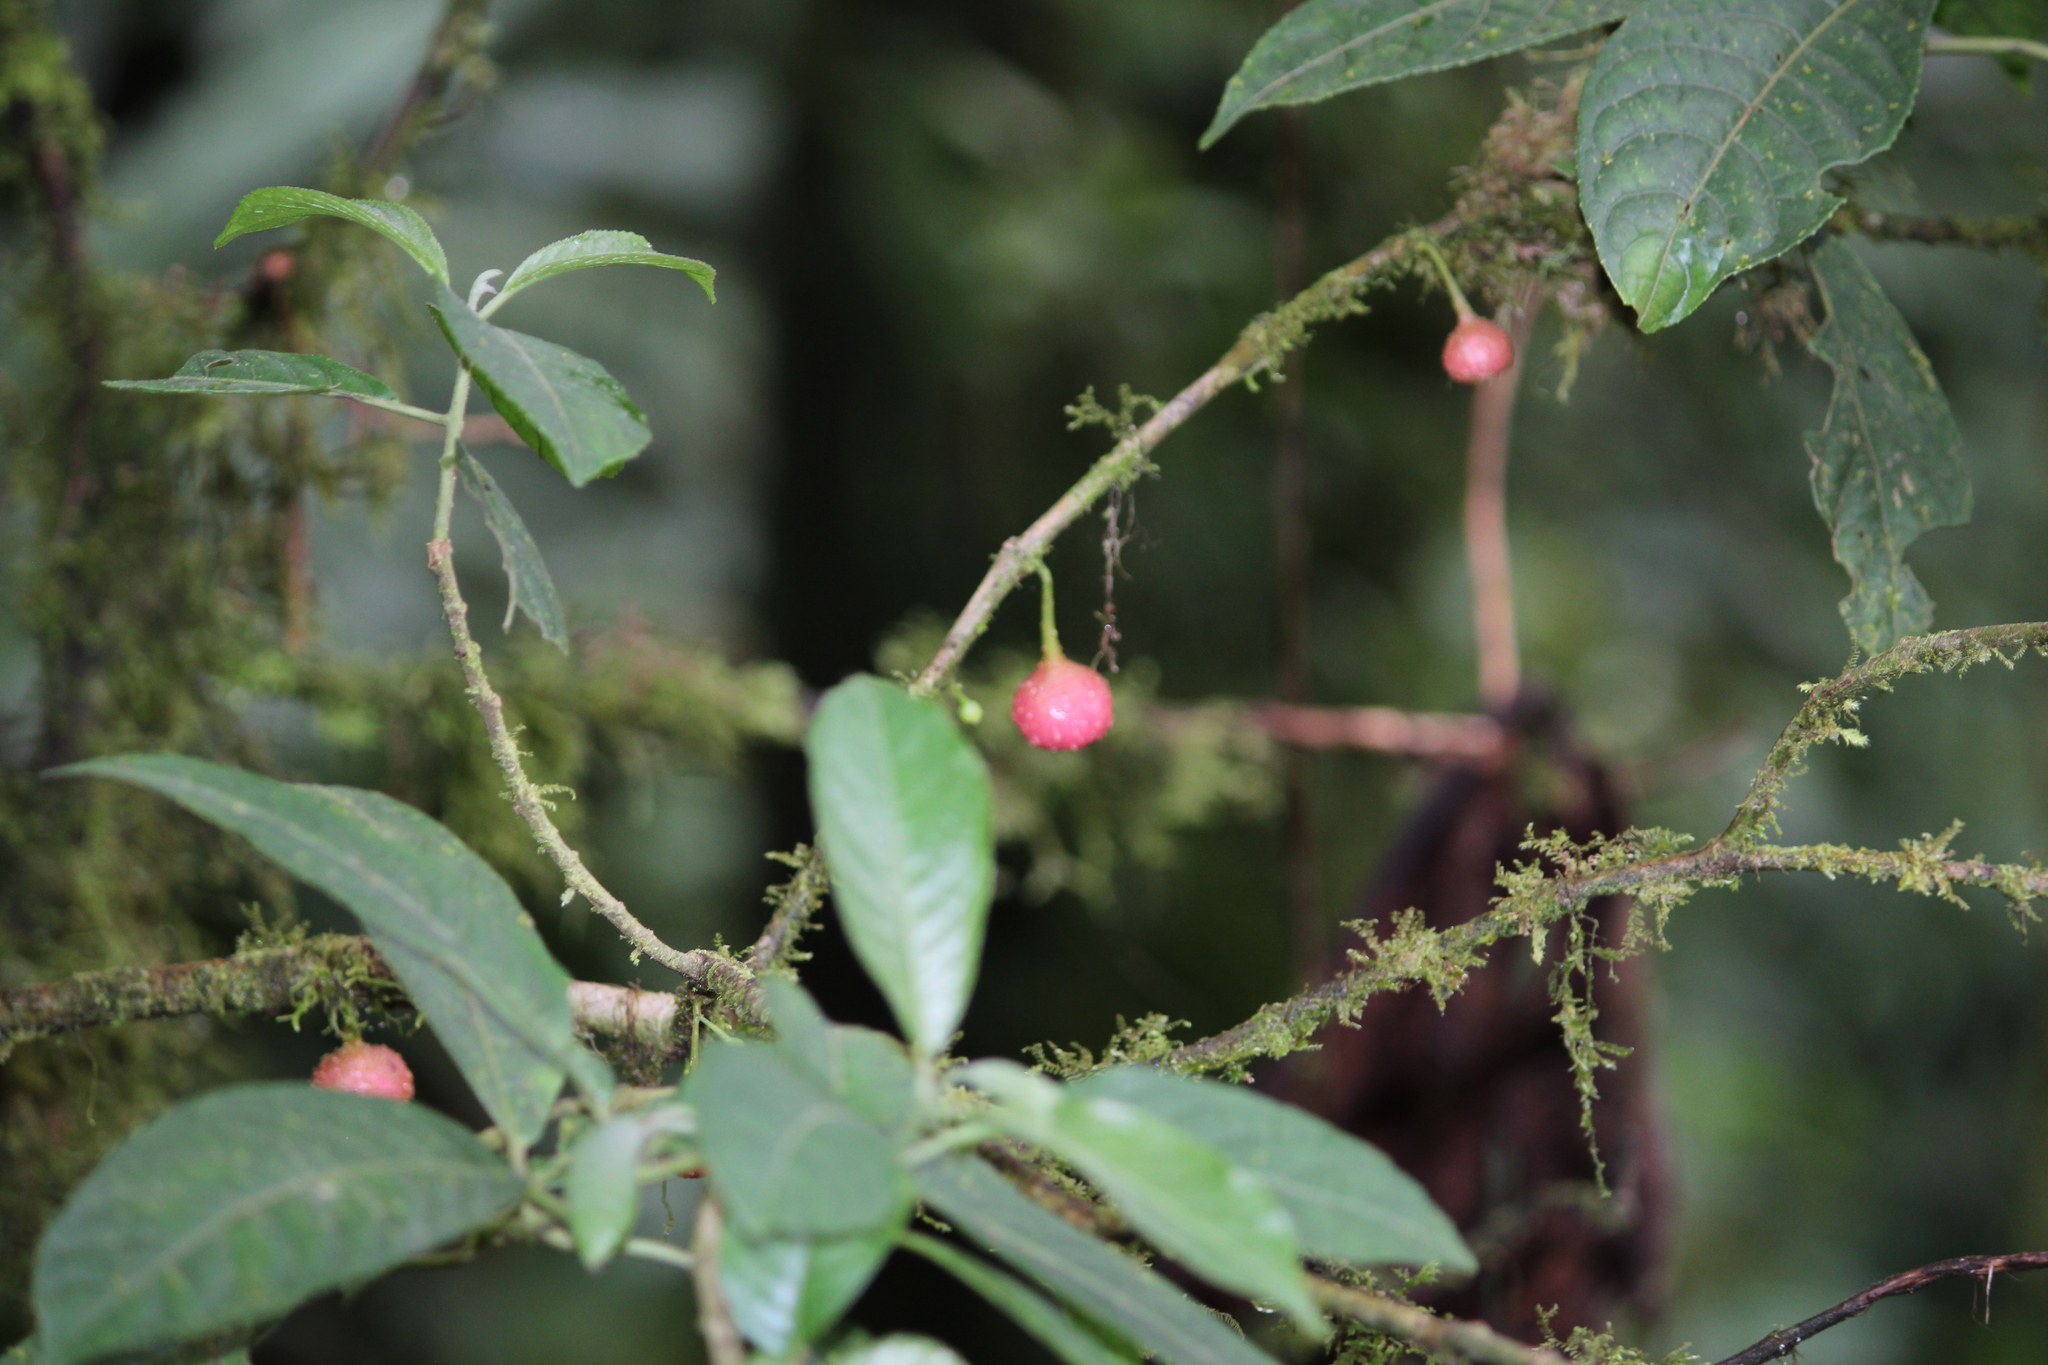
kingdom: Plantae
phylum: Tracheophyta
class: Magnoliopsida
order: Laurales
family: Siparunaceae
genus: Siparuna
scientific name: Siparuna thecaphora
